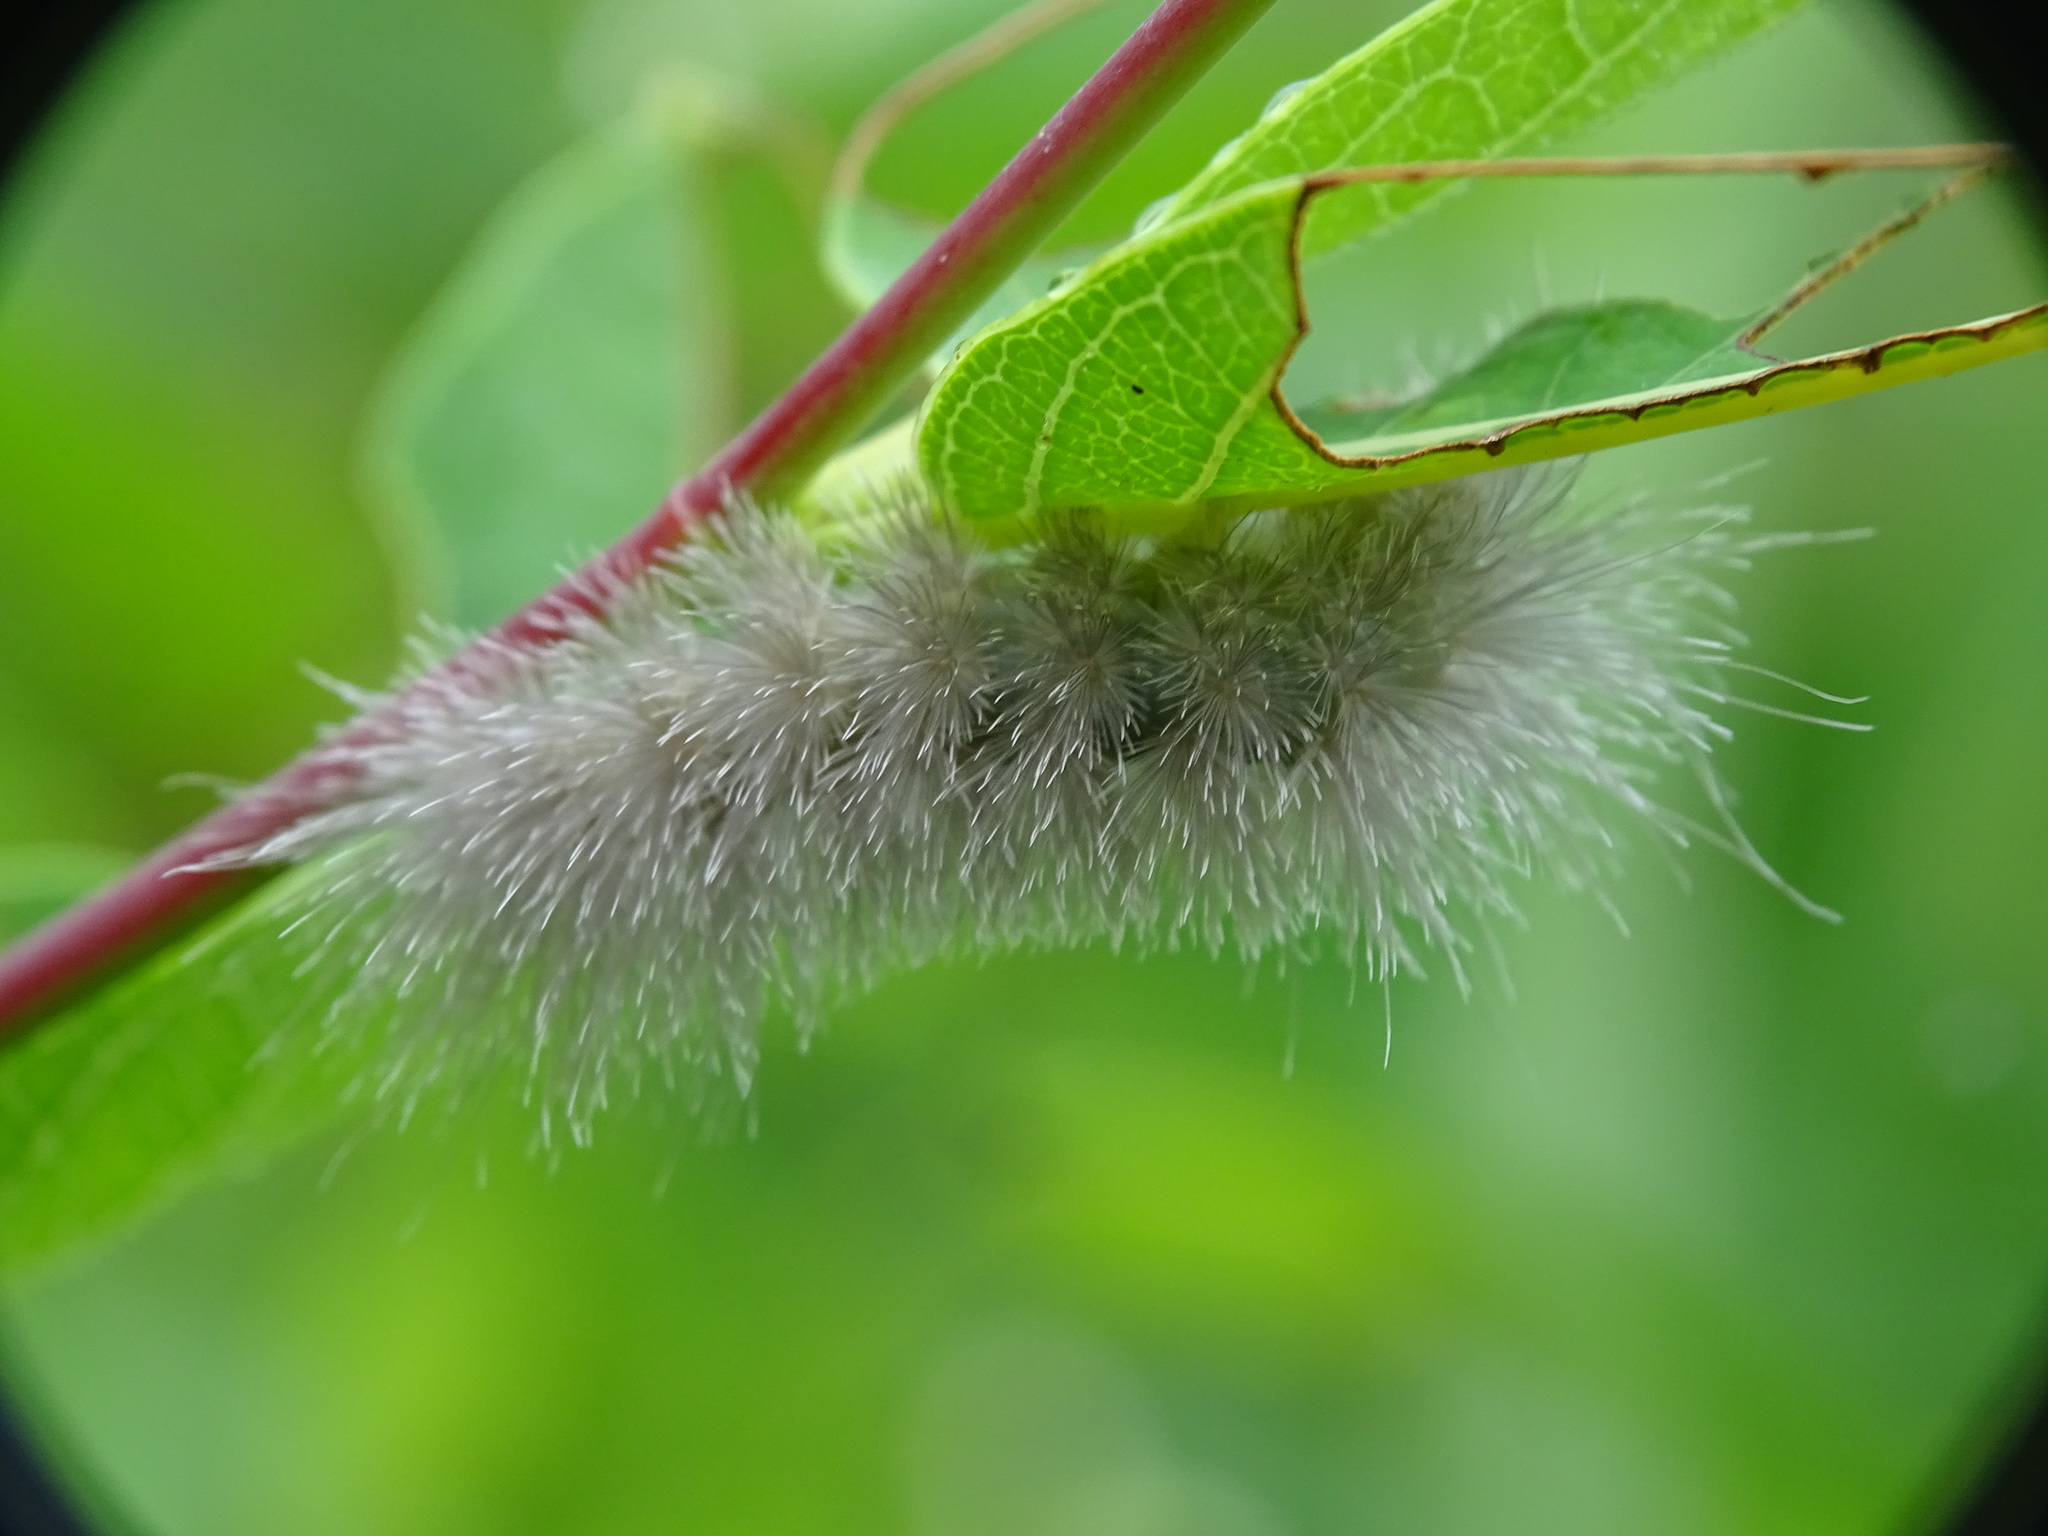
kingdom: Animalia
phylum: Arthropoda
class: Insecta
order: Lepidoptera
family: Erebidae
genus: Cycnia
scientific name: Cycnia tenera
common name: Delicate cycnia moth
